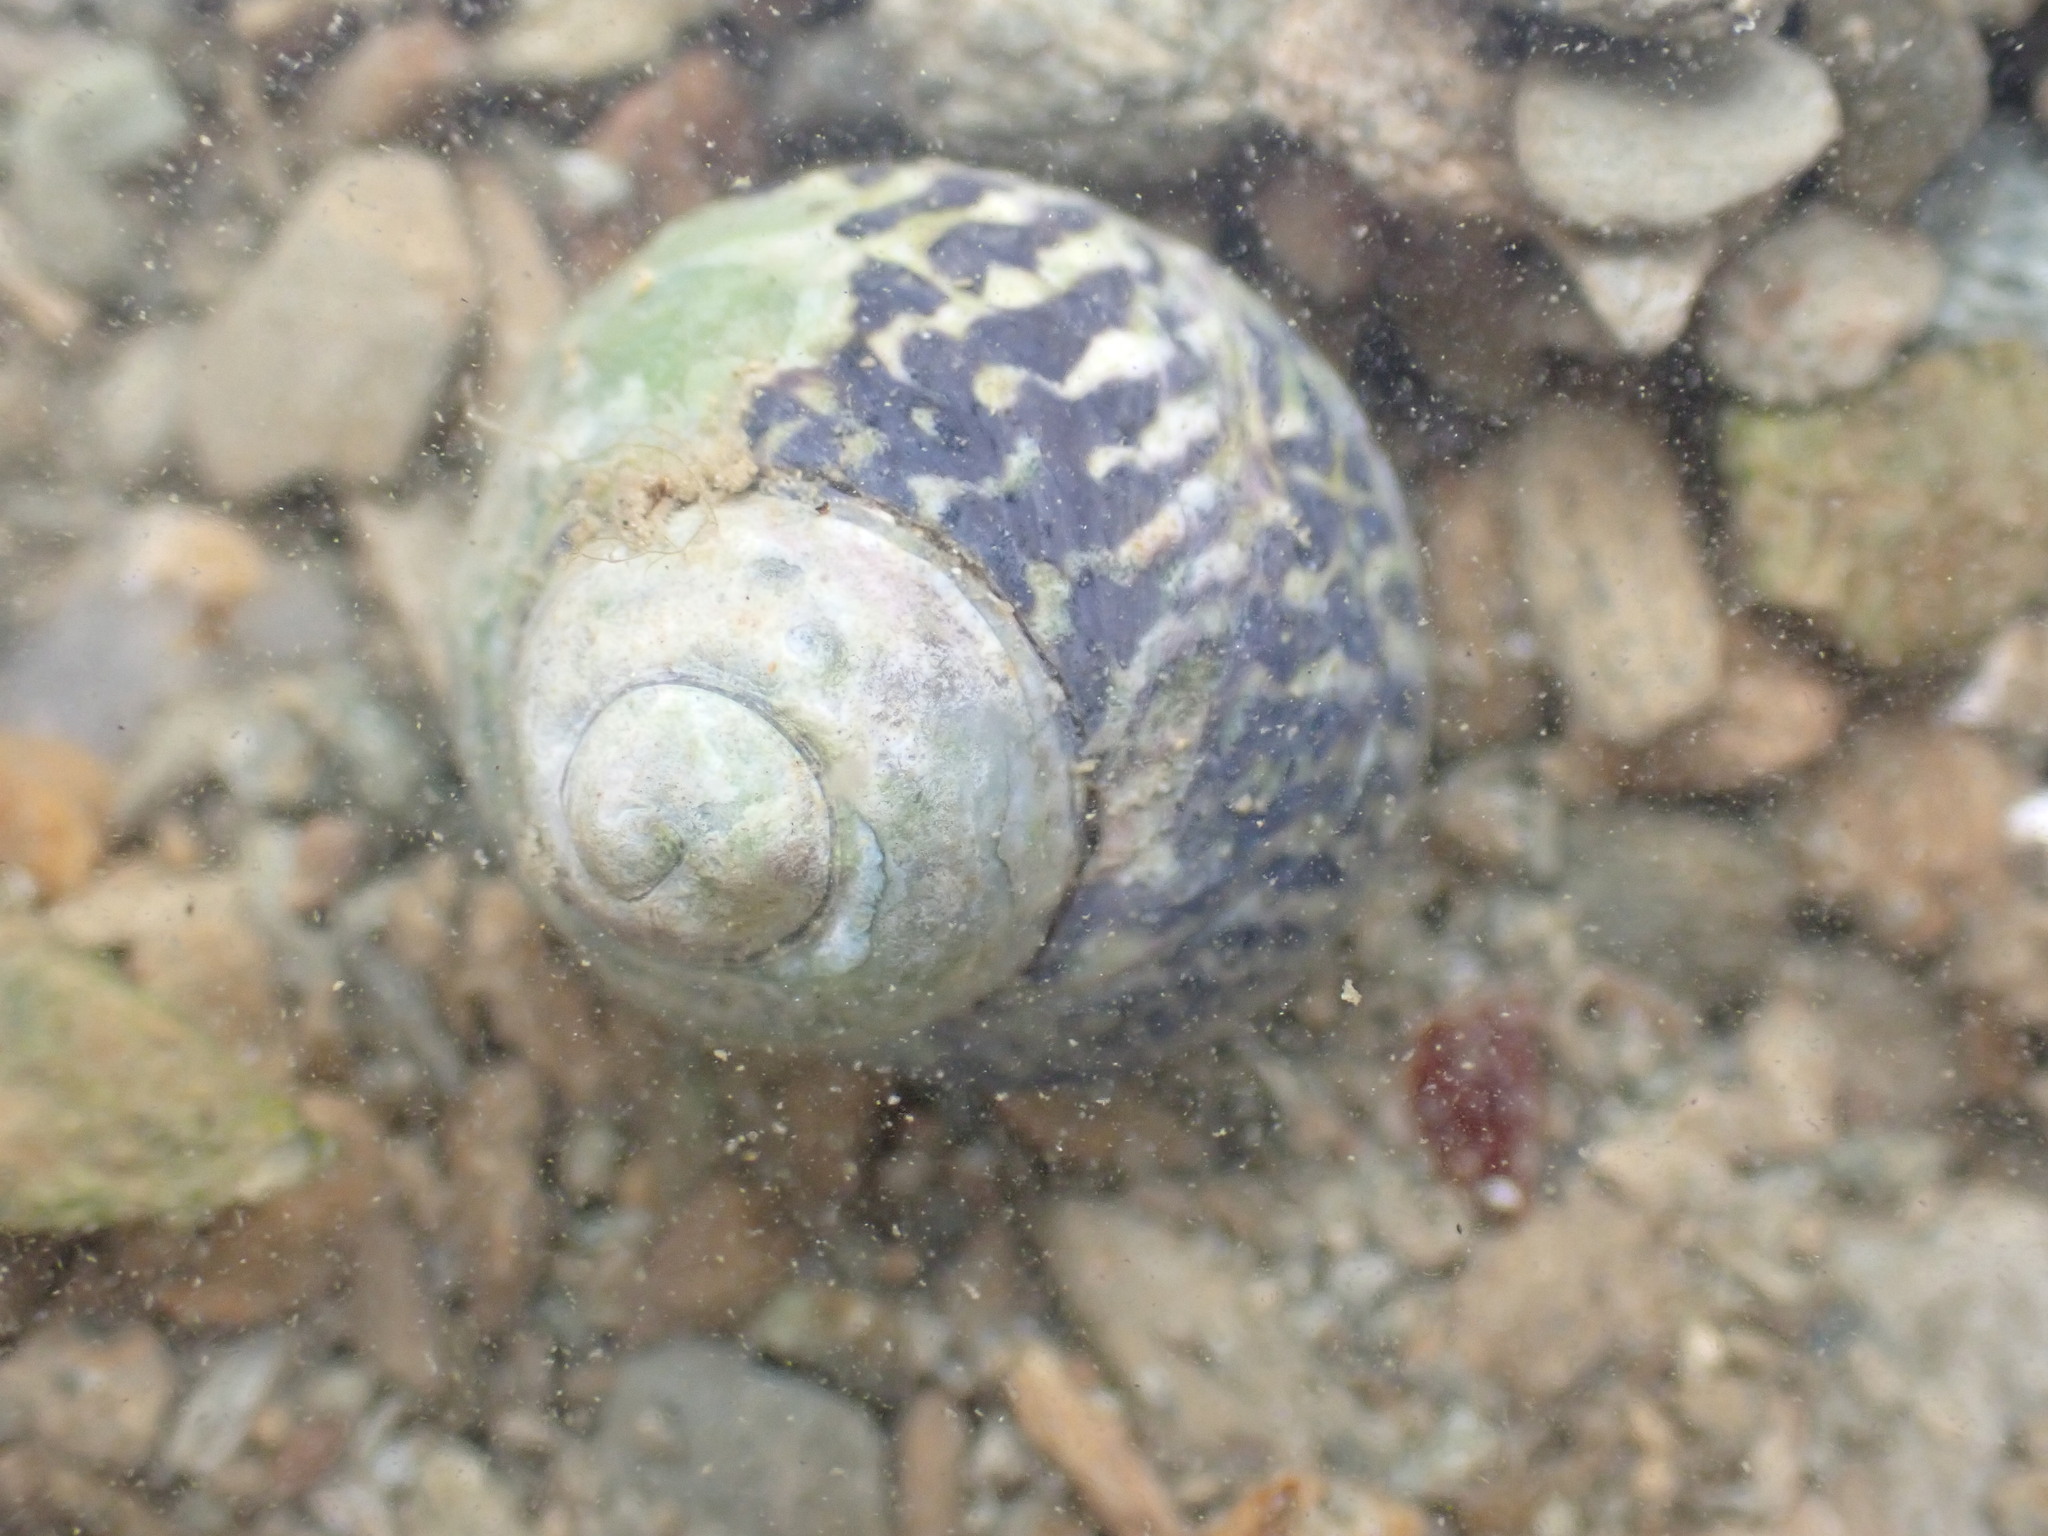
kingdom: Animalia
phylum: Mollusca
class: Gastropoda
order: Trochida
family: Trochidae
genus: Diloma
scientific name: Diloma subrostratum
